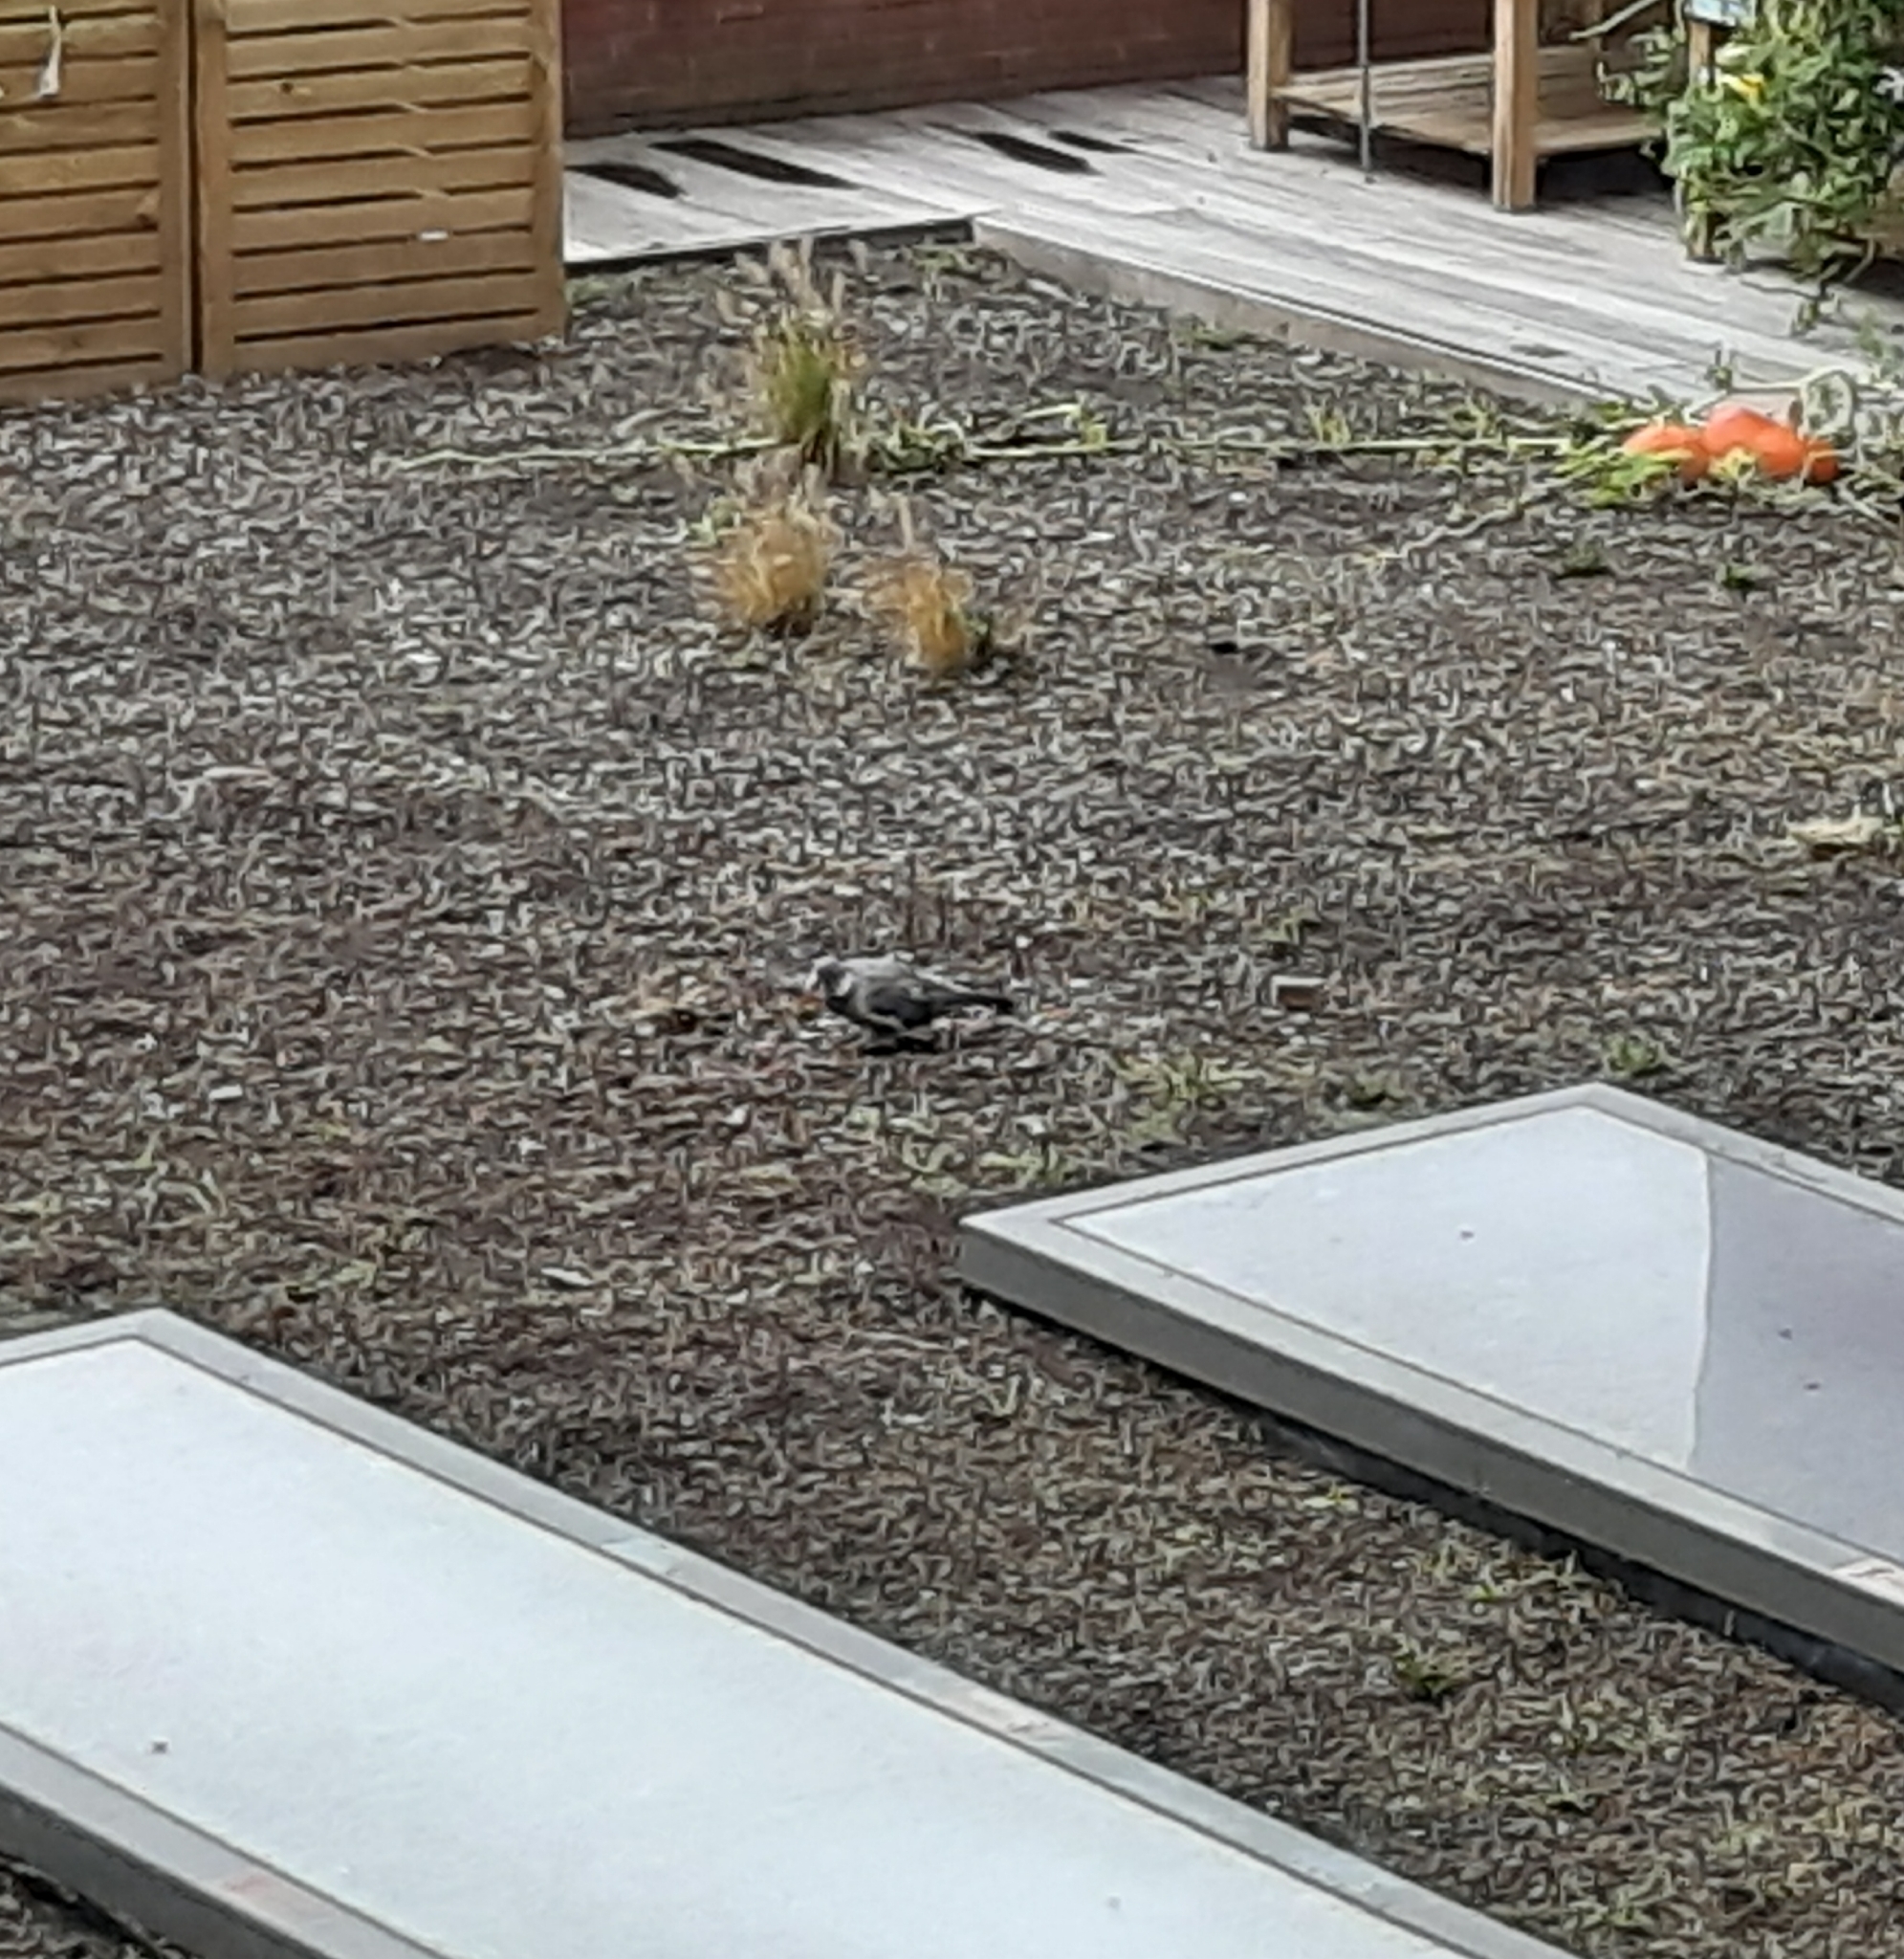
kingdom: Animalia
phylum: Chordata
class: Aves
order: Columbiformes
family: Columbidae
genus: Columba
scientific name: Columba palumbus
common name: Common wood pigeon
